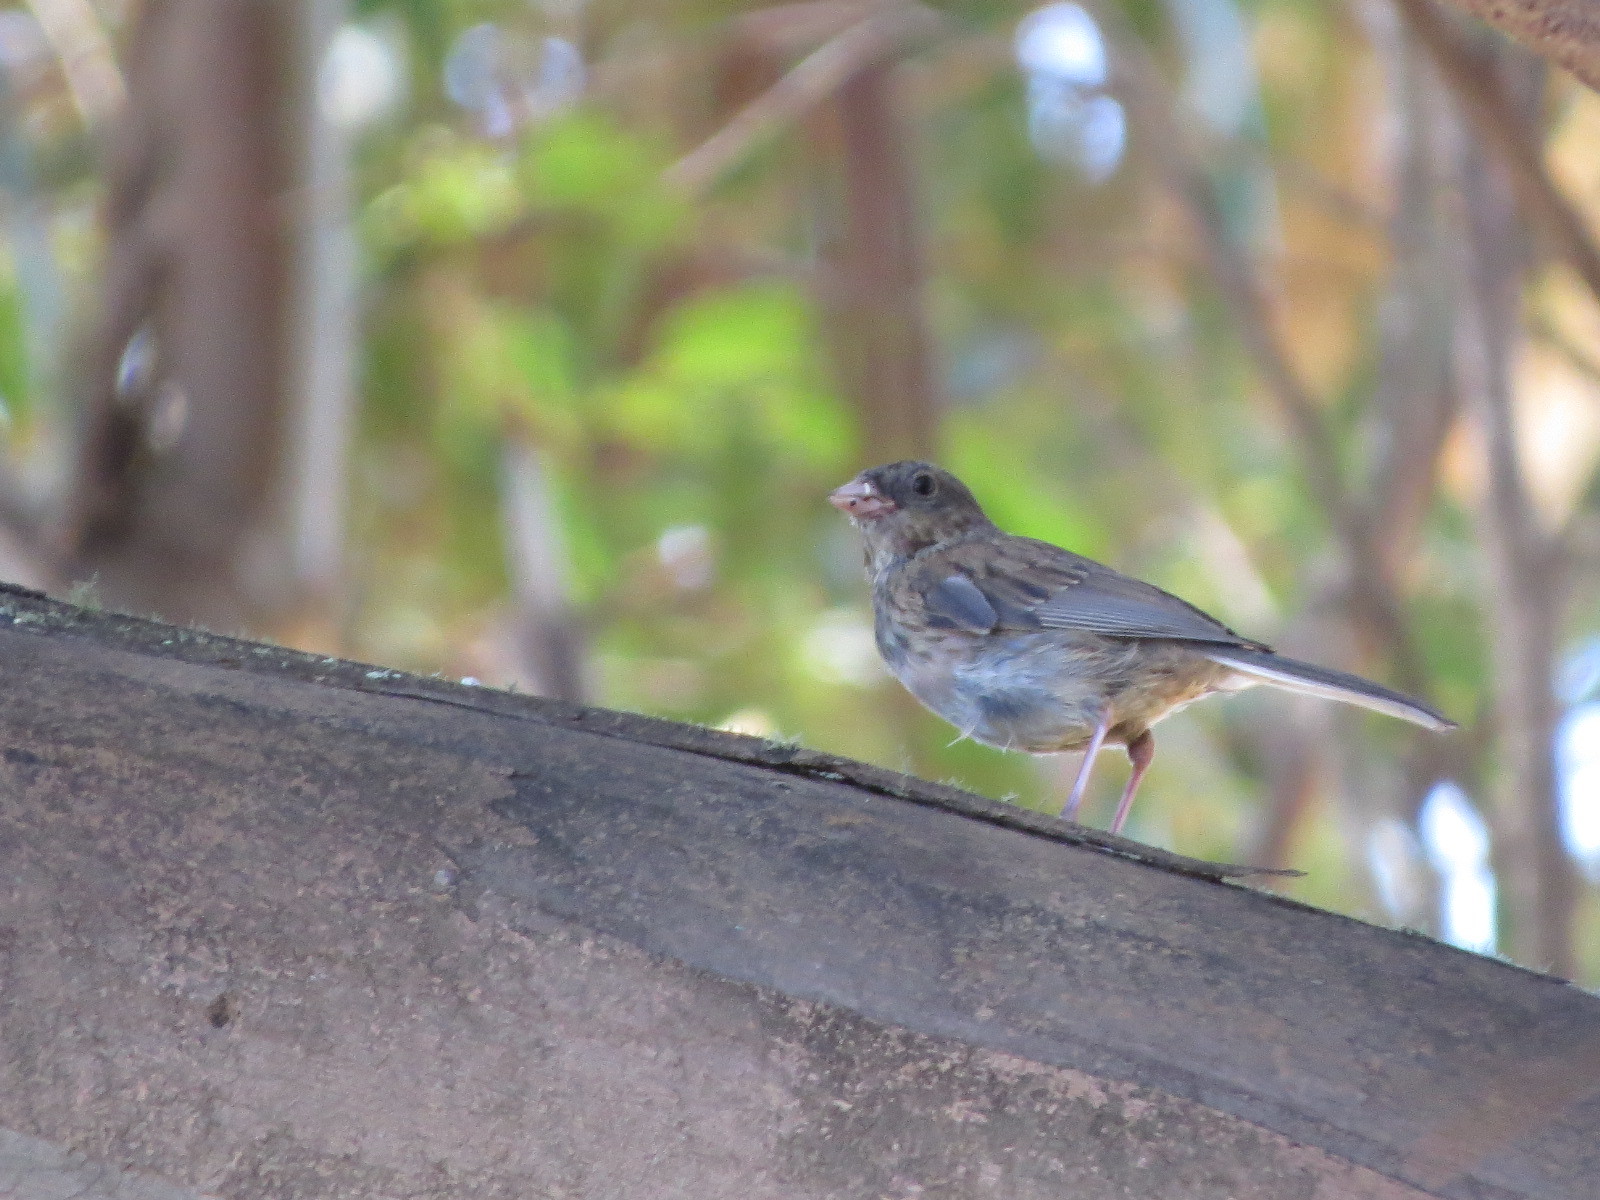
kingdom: Animalia
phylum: Chordata
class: Aves
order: Passeriformes
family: Passerellidae
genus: Junco
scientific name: Junco hyemalis
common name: Dark-eyed junco
